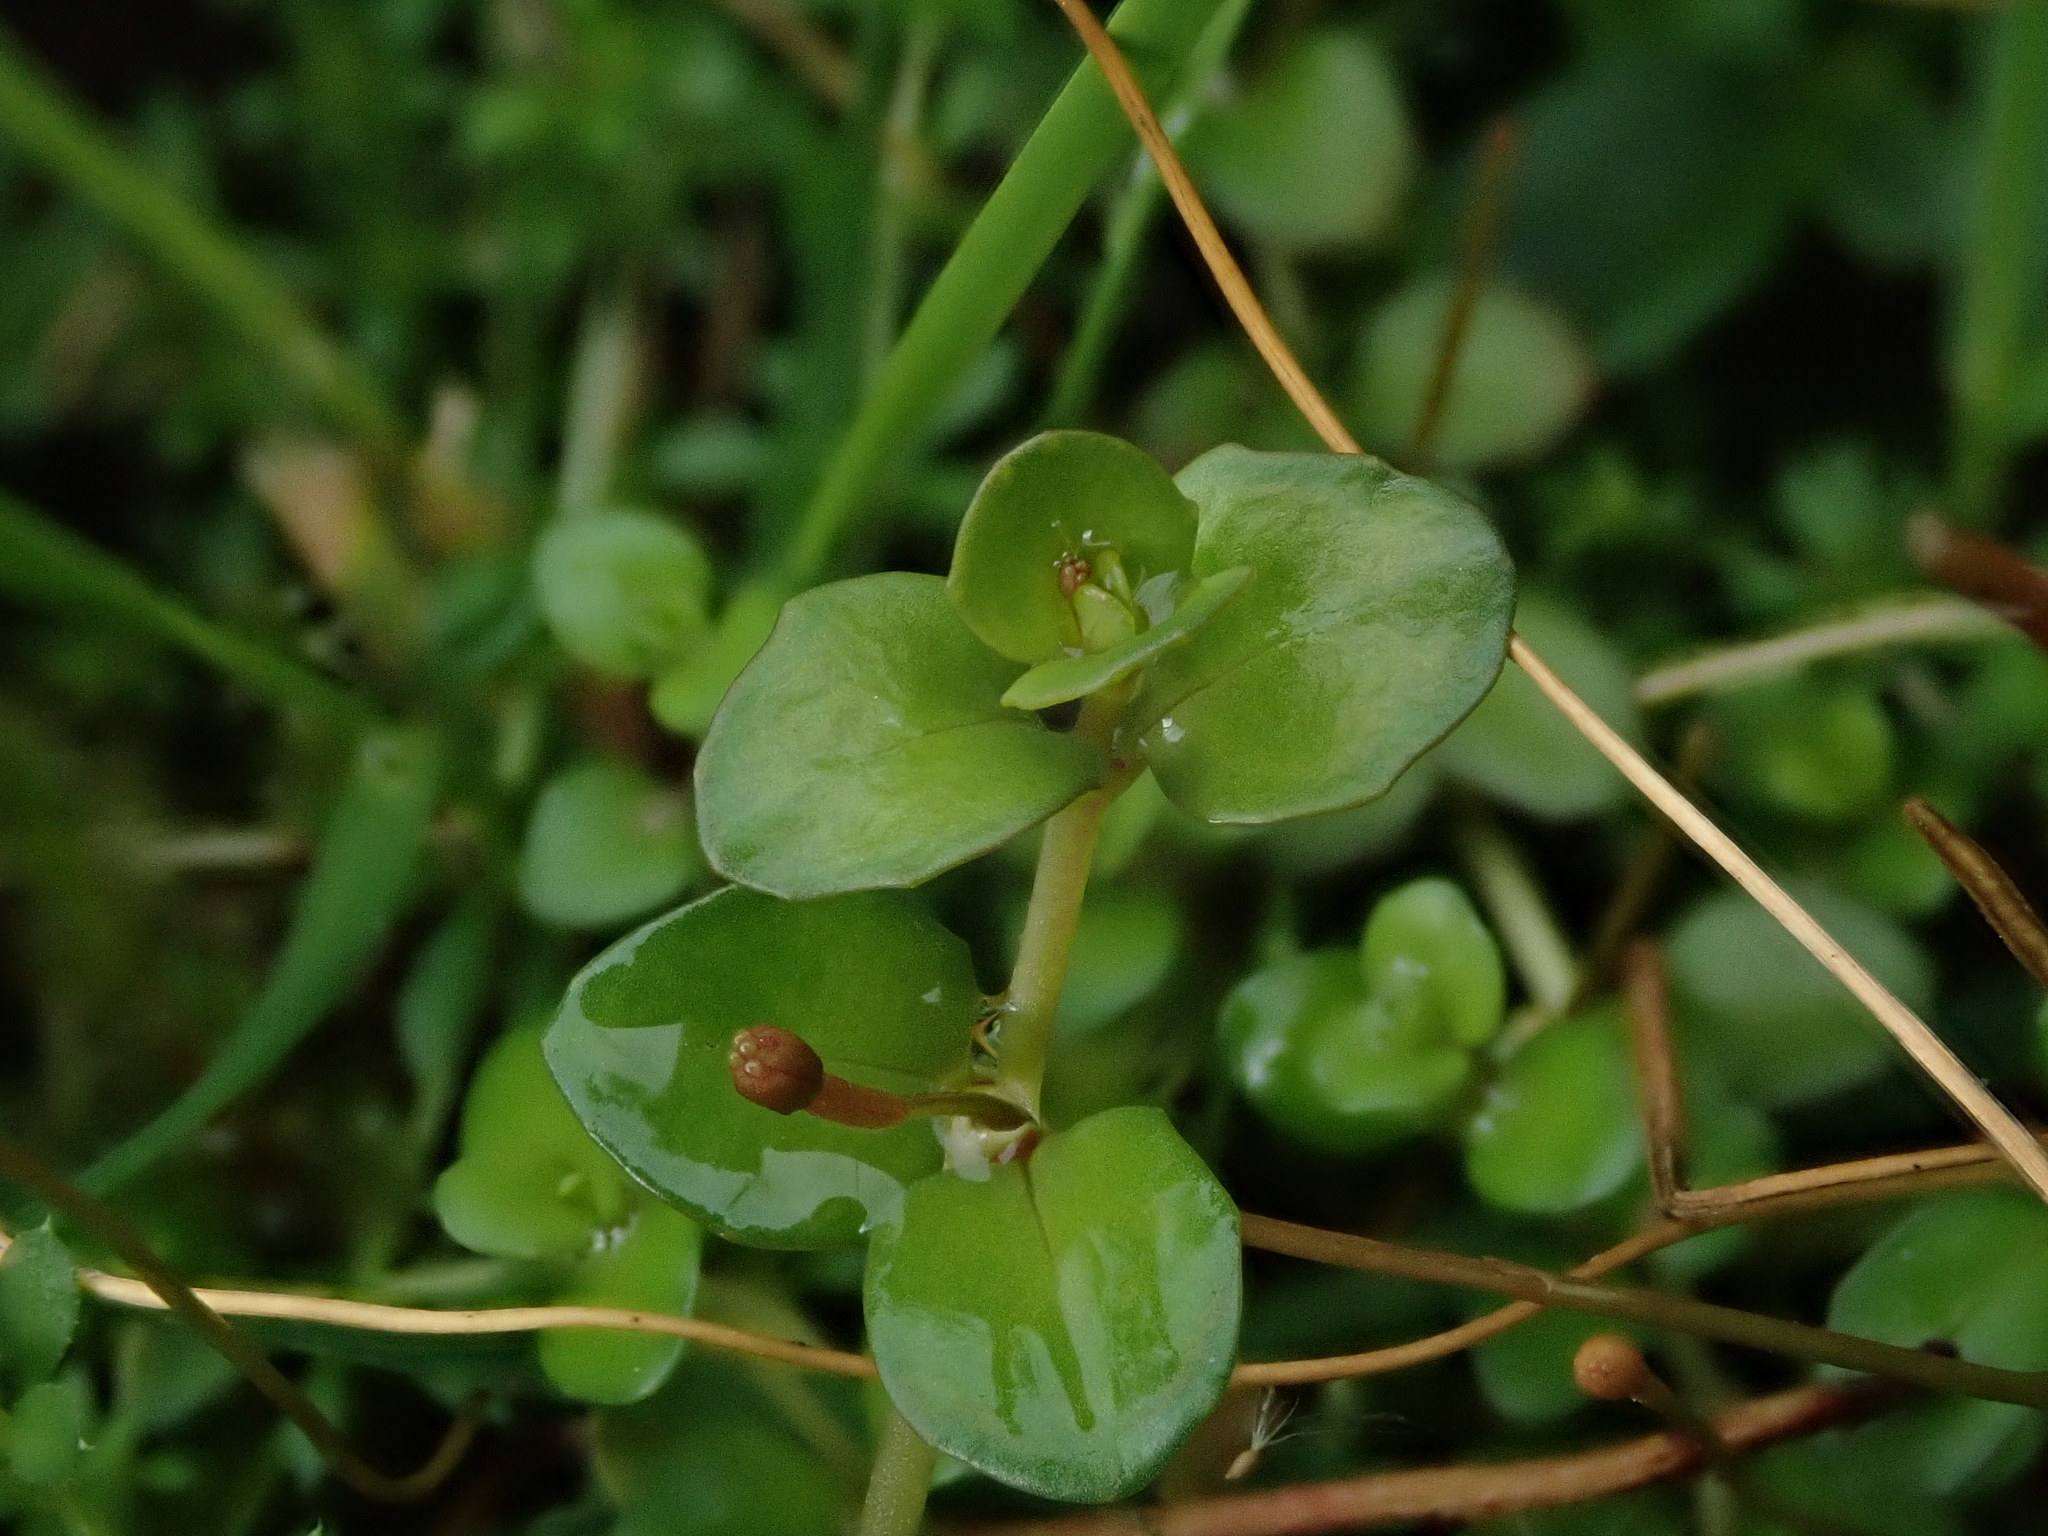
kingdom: Plantae
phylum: Tracheophyta
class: Magnoliopsida
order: Myrtales
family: Onagraceae
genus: Epilobium
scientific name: Epilobium brunnescens
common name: New zealand willowherb
